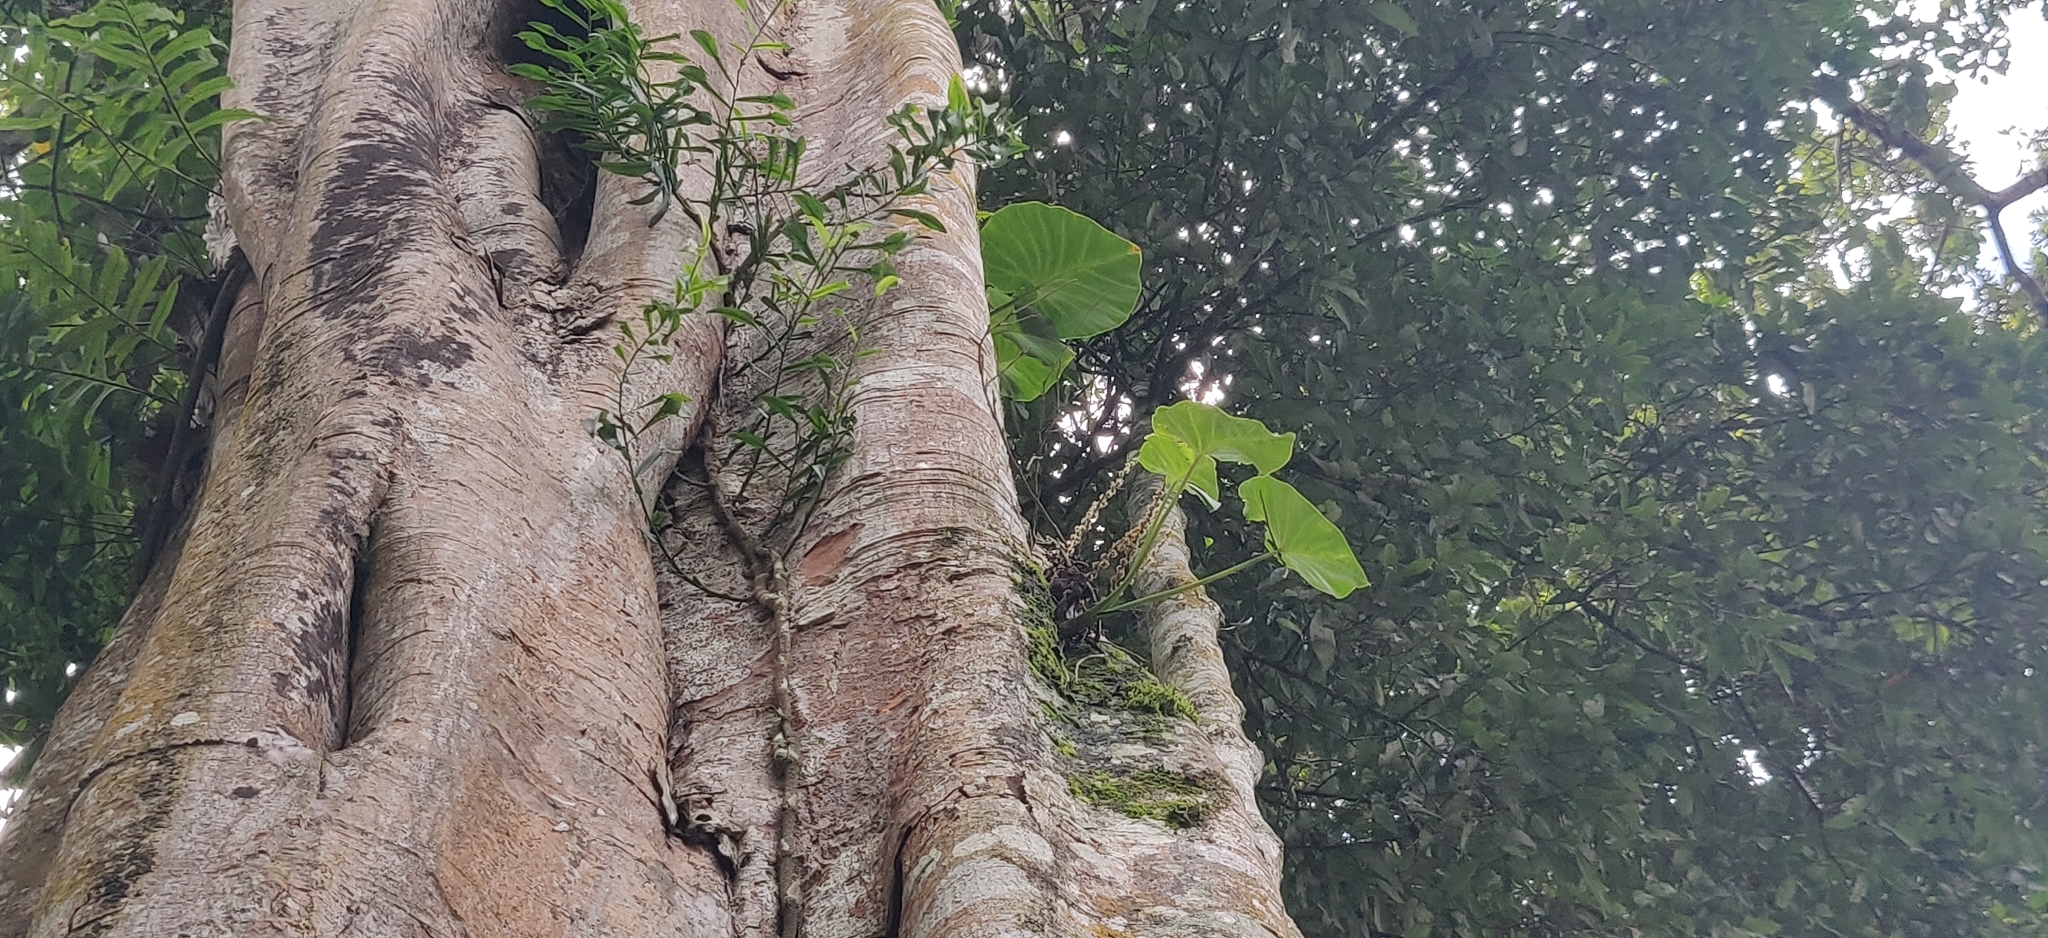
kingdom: Plantae
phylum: Tracheophyta
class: Liliopsida
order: Alismatales
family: Araceae
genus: Remusatia
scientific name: Remusatia vivipara
